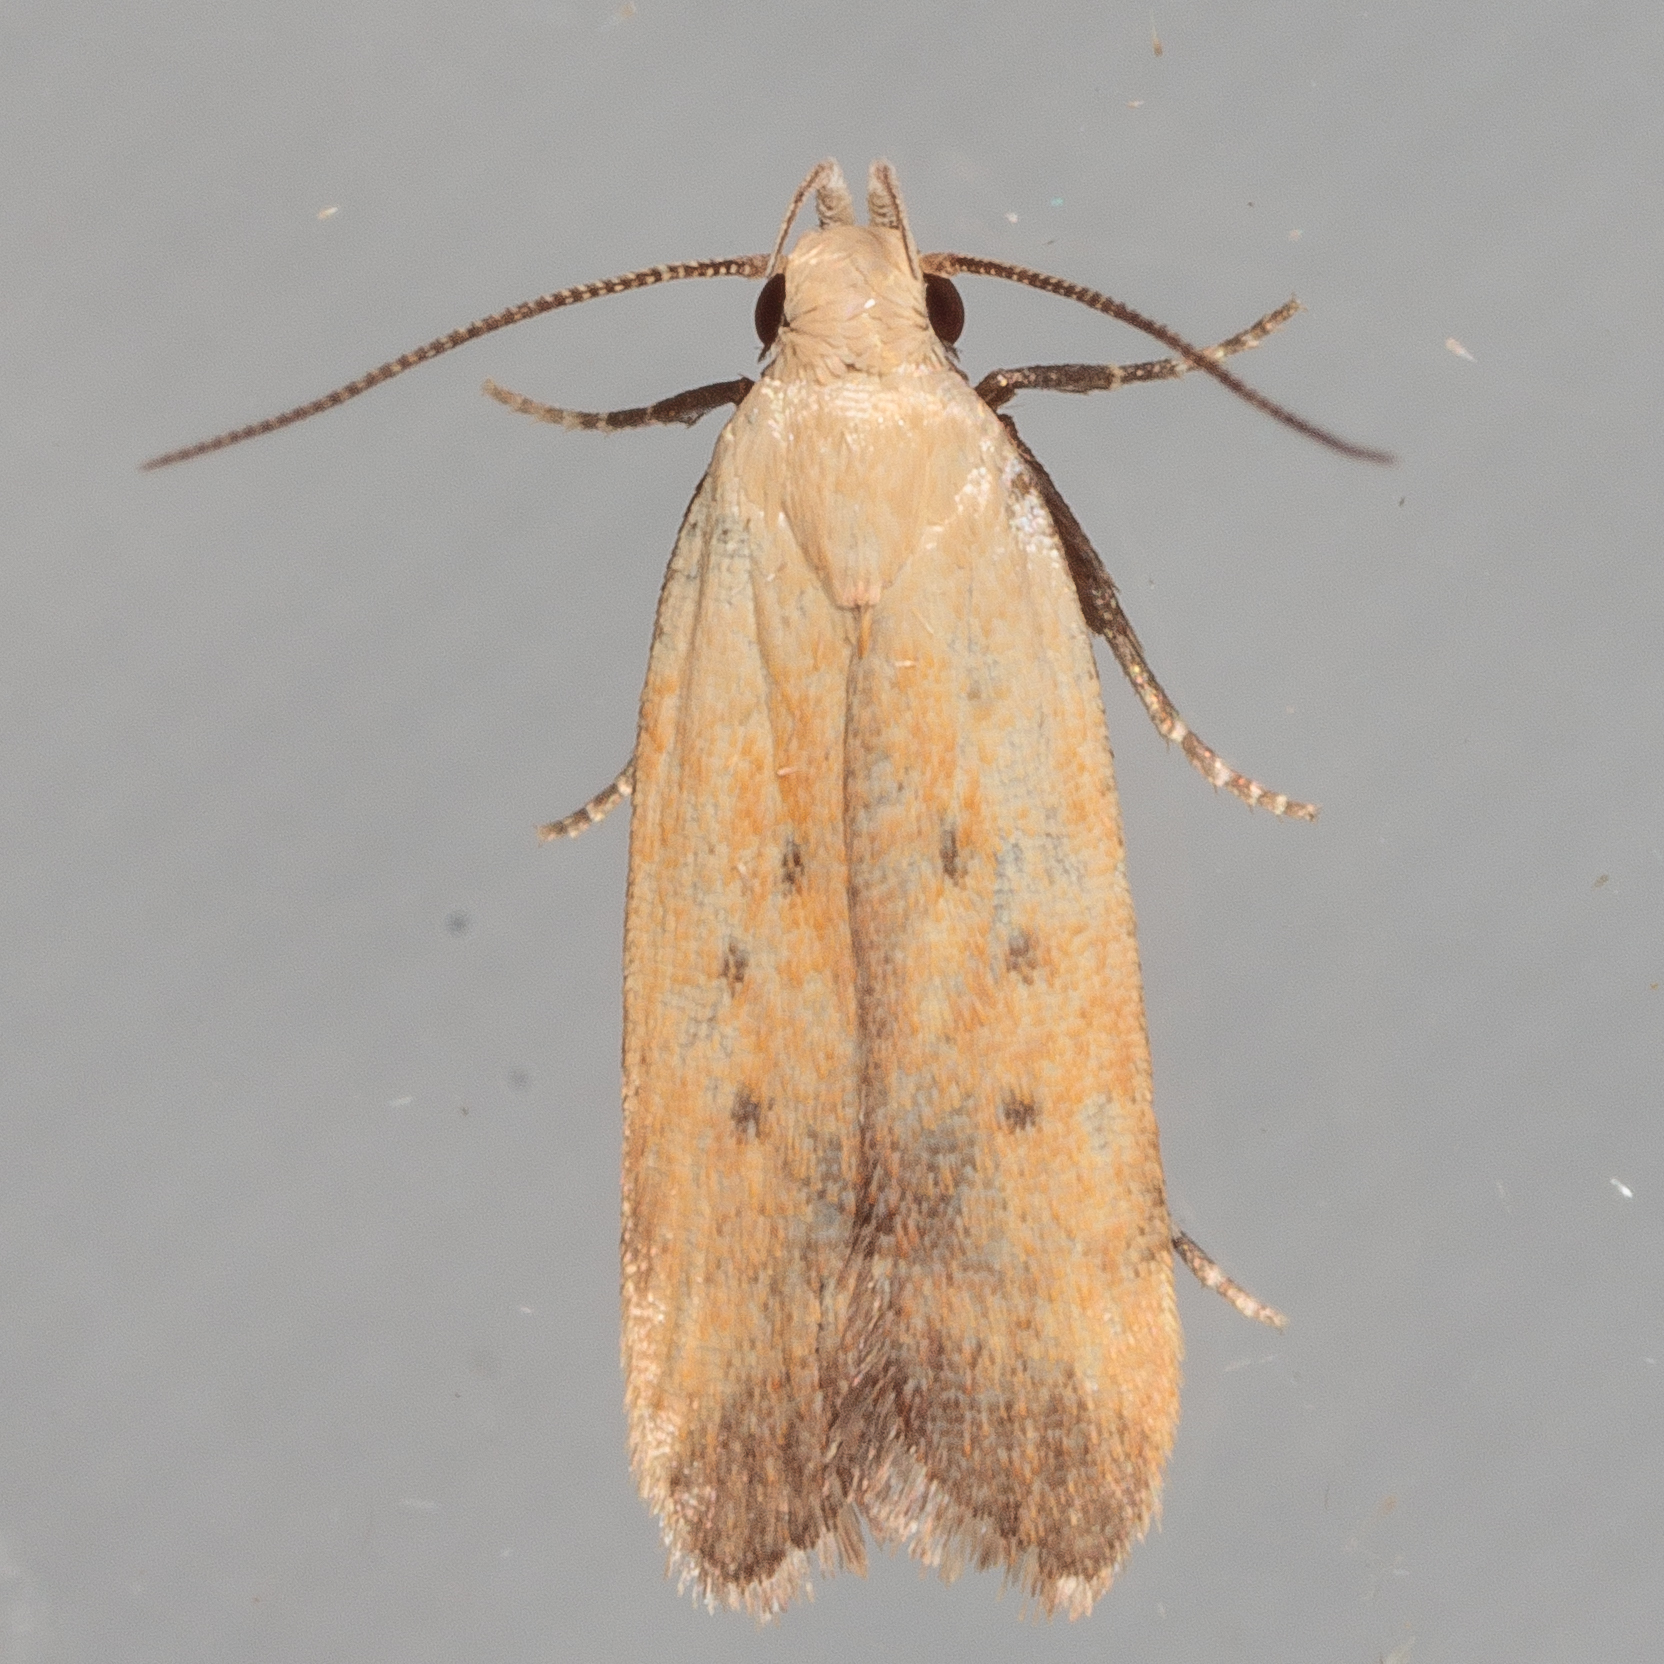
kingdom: Animalia
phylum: Arthropoda
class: Insecta
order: Lepidoptera
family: Gelechiidae
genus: Anacampsis
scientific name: Anacampsis fullonella
